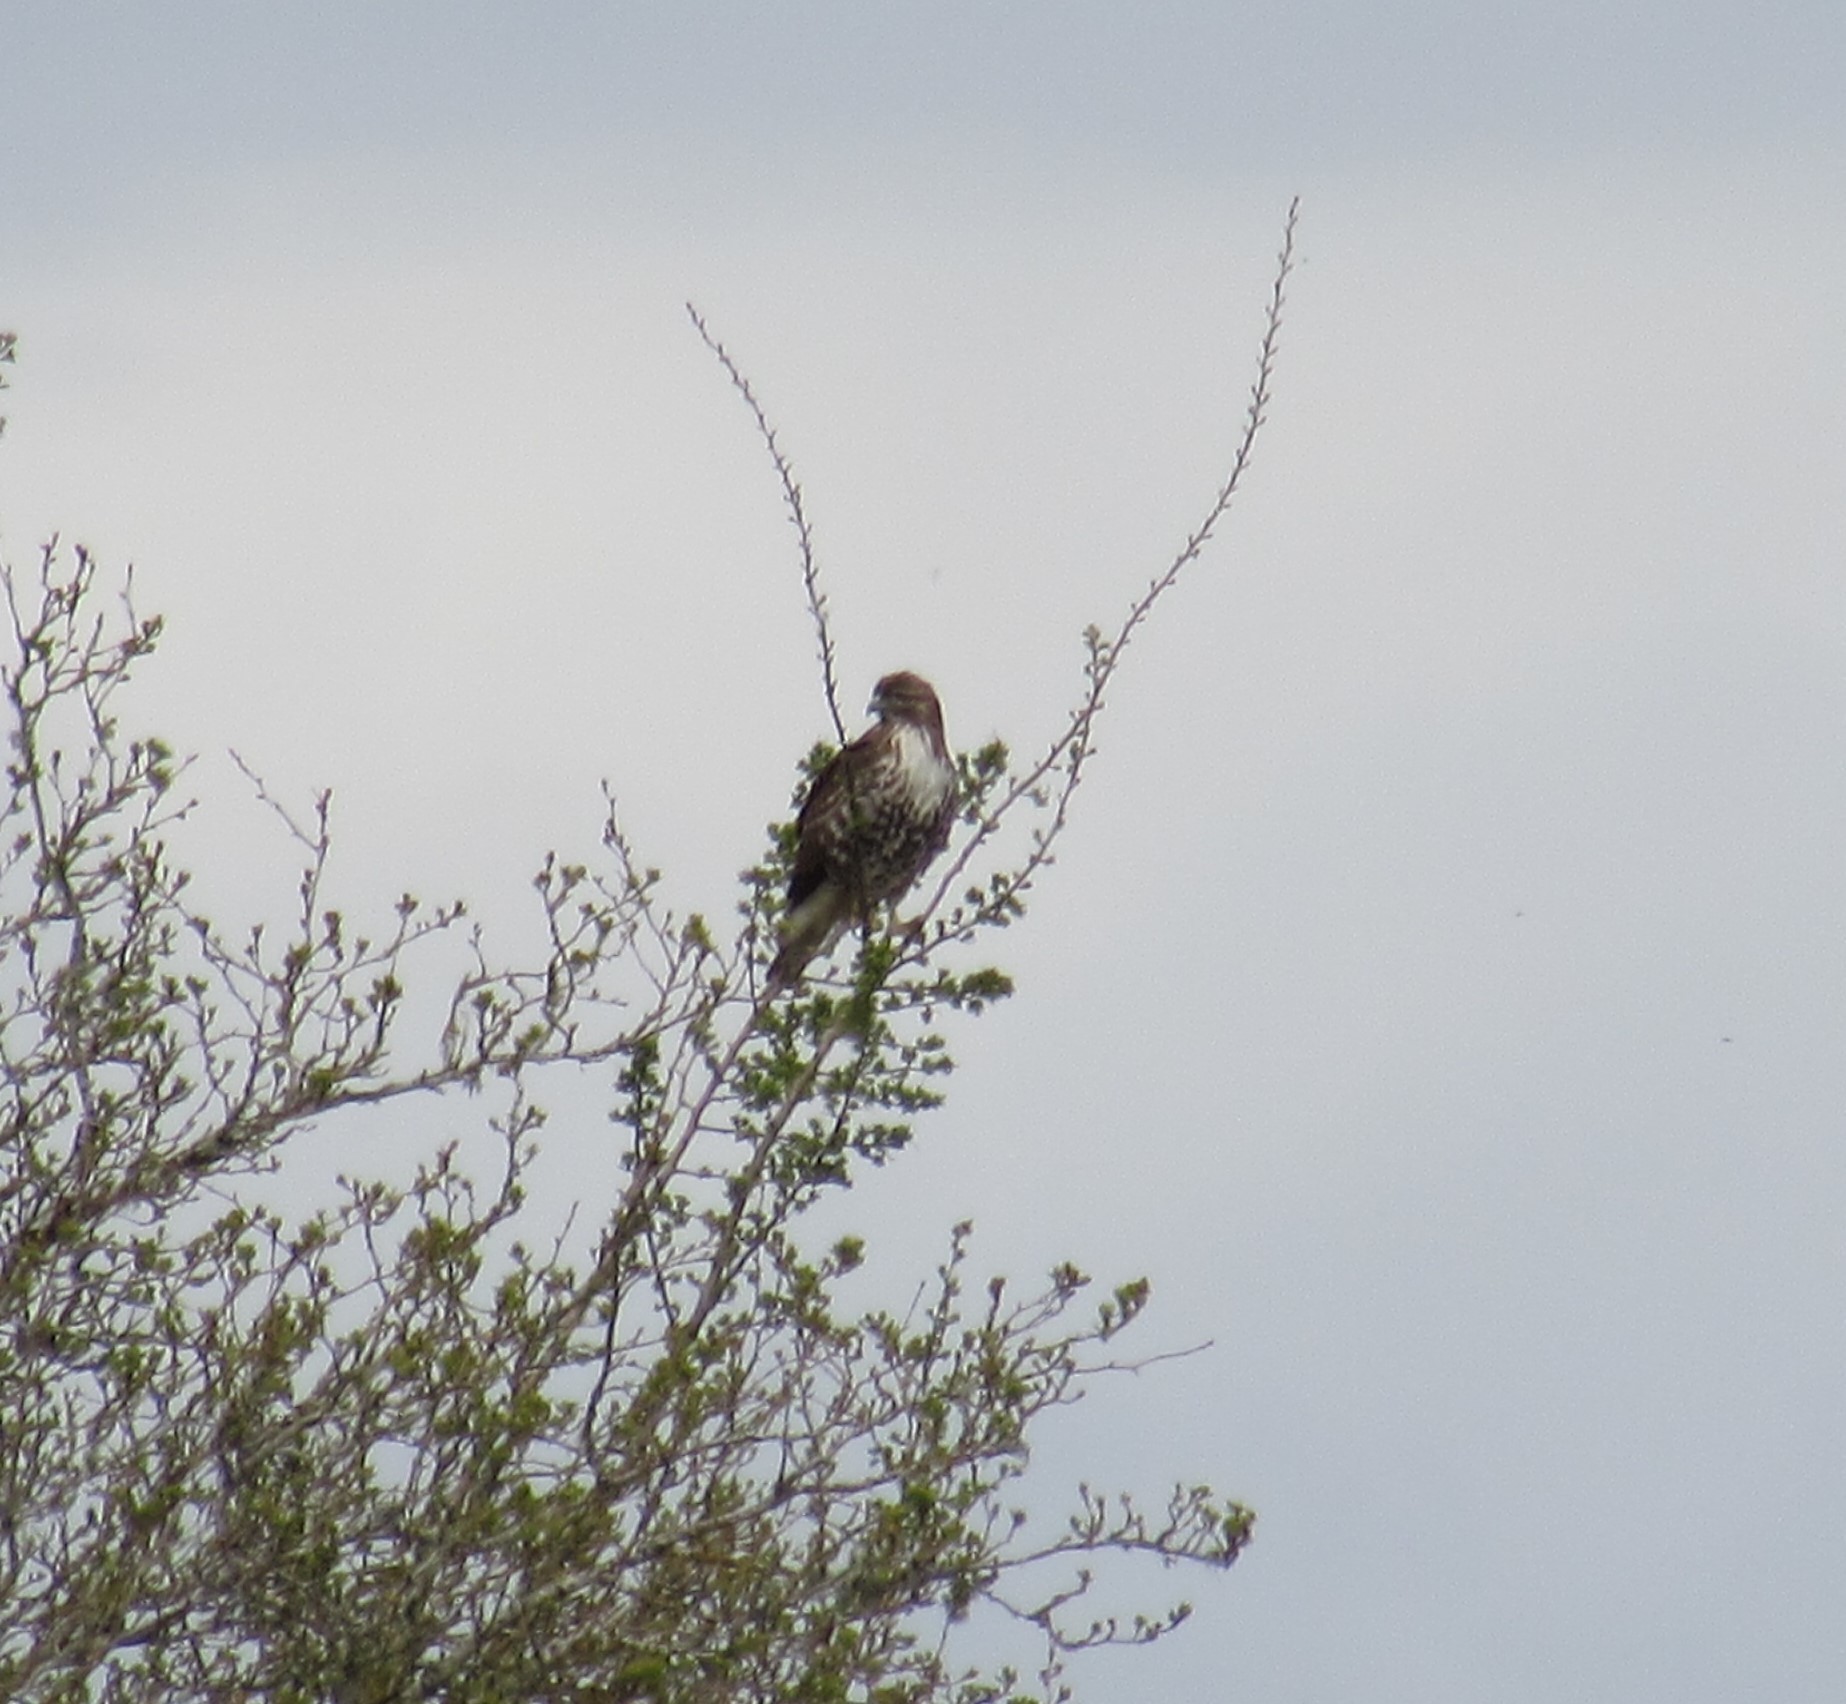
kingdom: Animalia
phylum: Chordata
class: Aves
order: Accipitriformes
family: Accipitridae
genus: Buteo
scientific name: Buteo jamaicensis
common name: Red-tailed hawk
